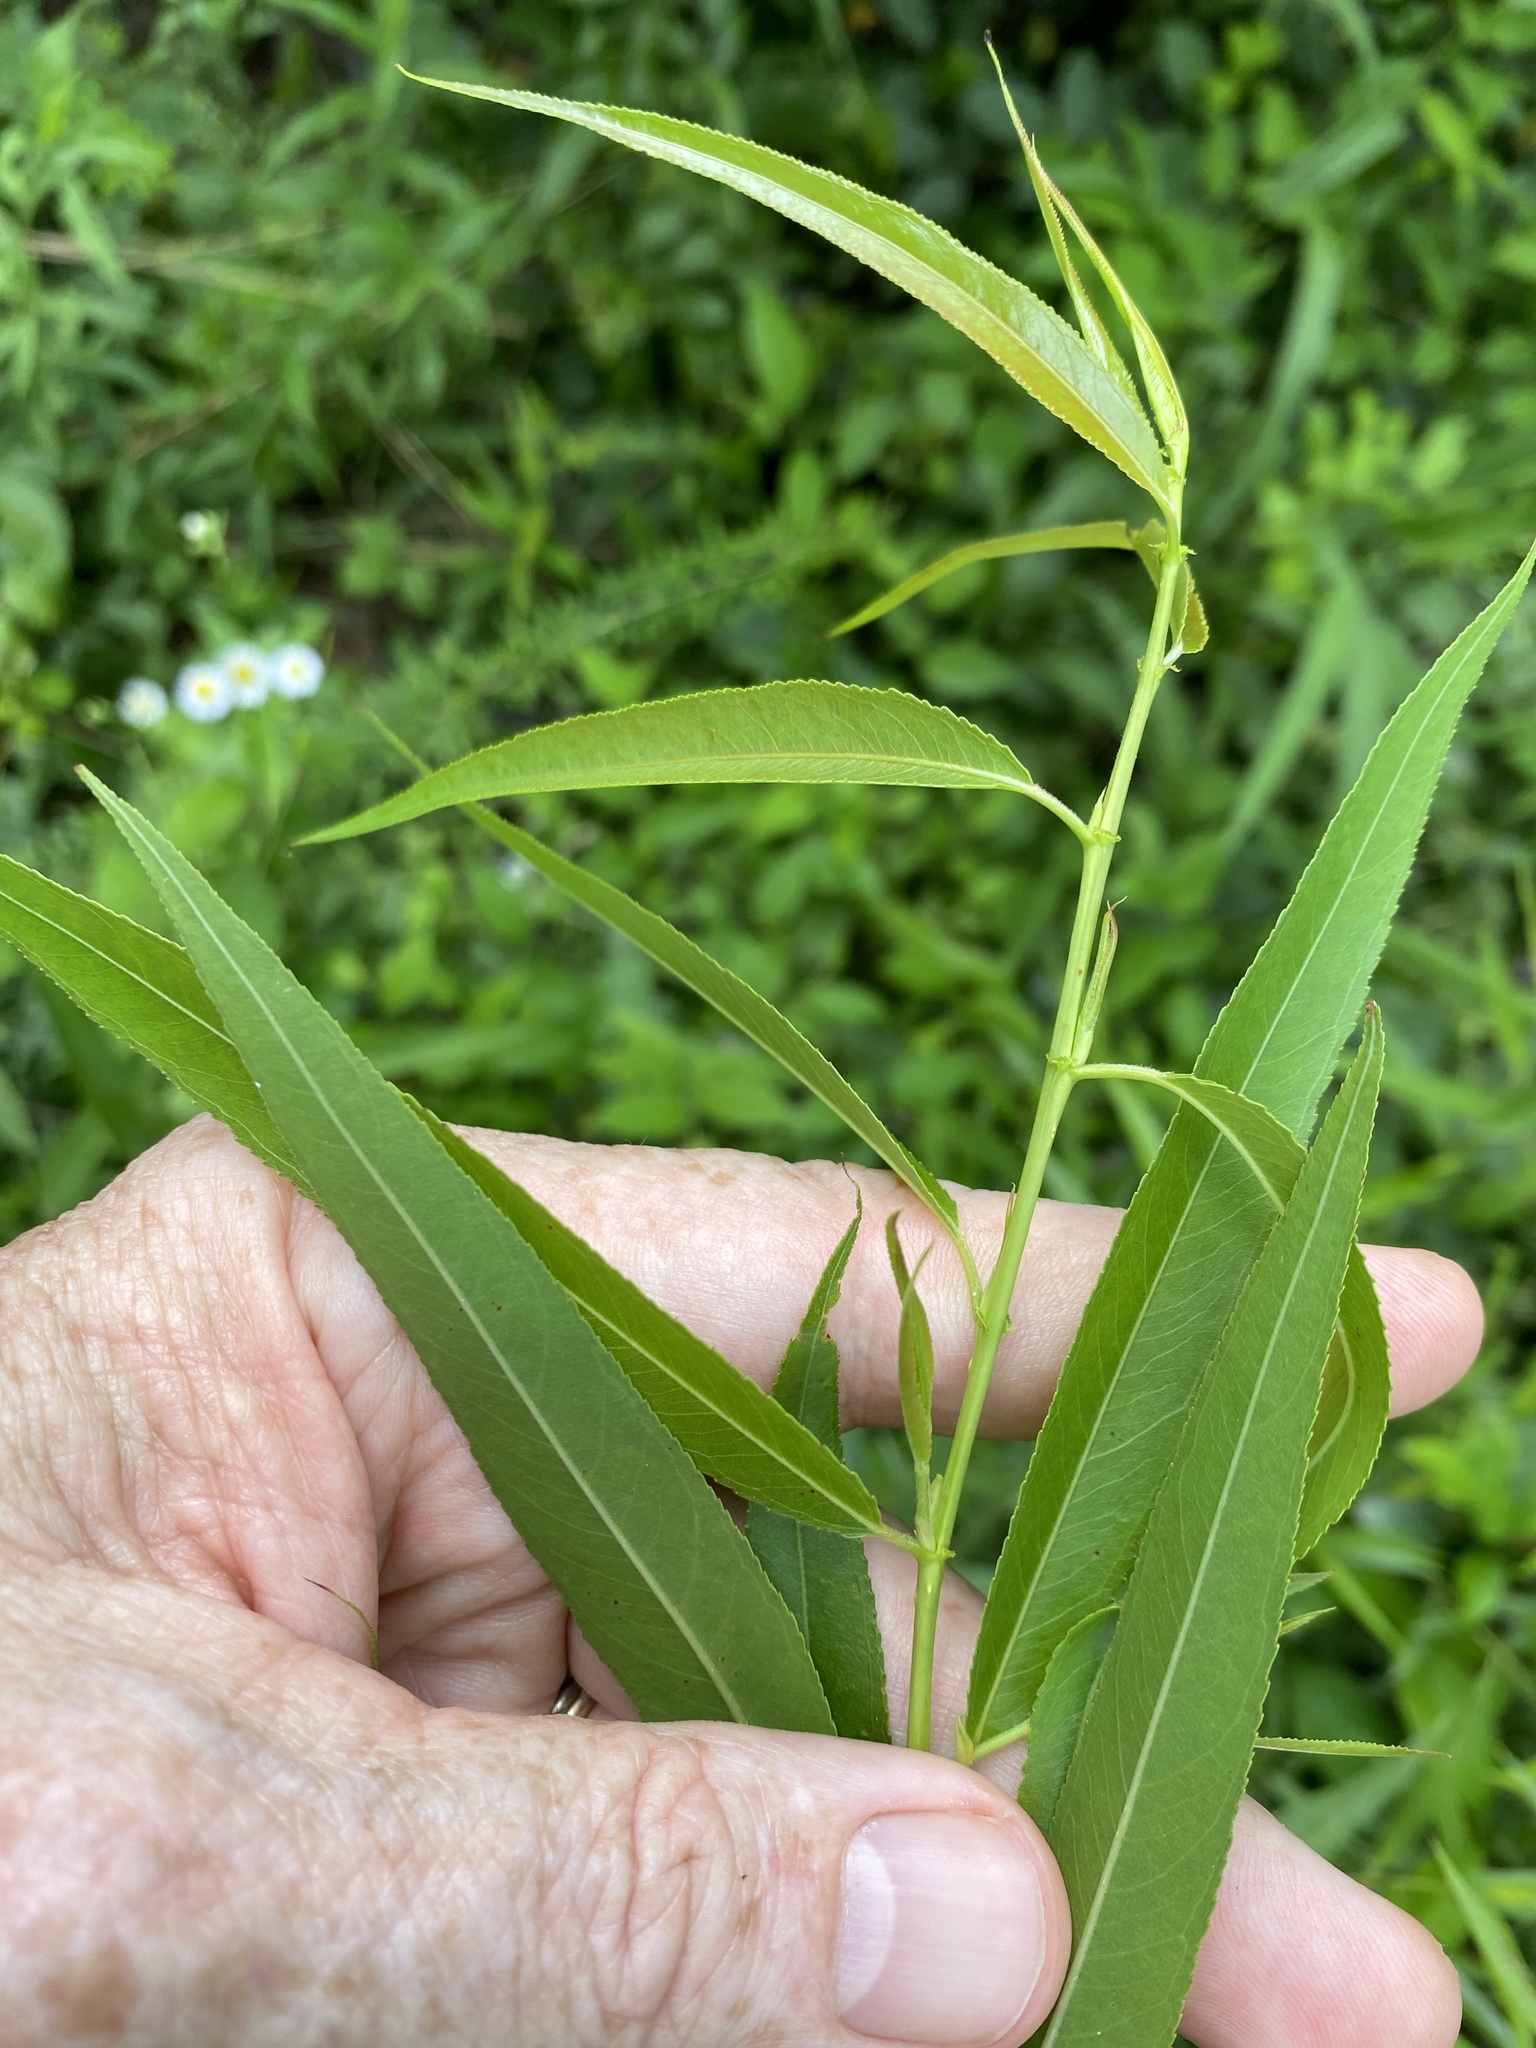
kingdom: Plantae
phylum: Tracheophyta
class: Magnoliopsida
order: Malpighiales
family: Salicaceae
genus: Salix
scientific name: Salix nigra
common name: Black willow
